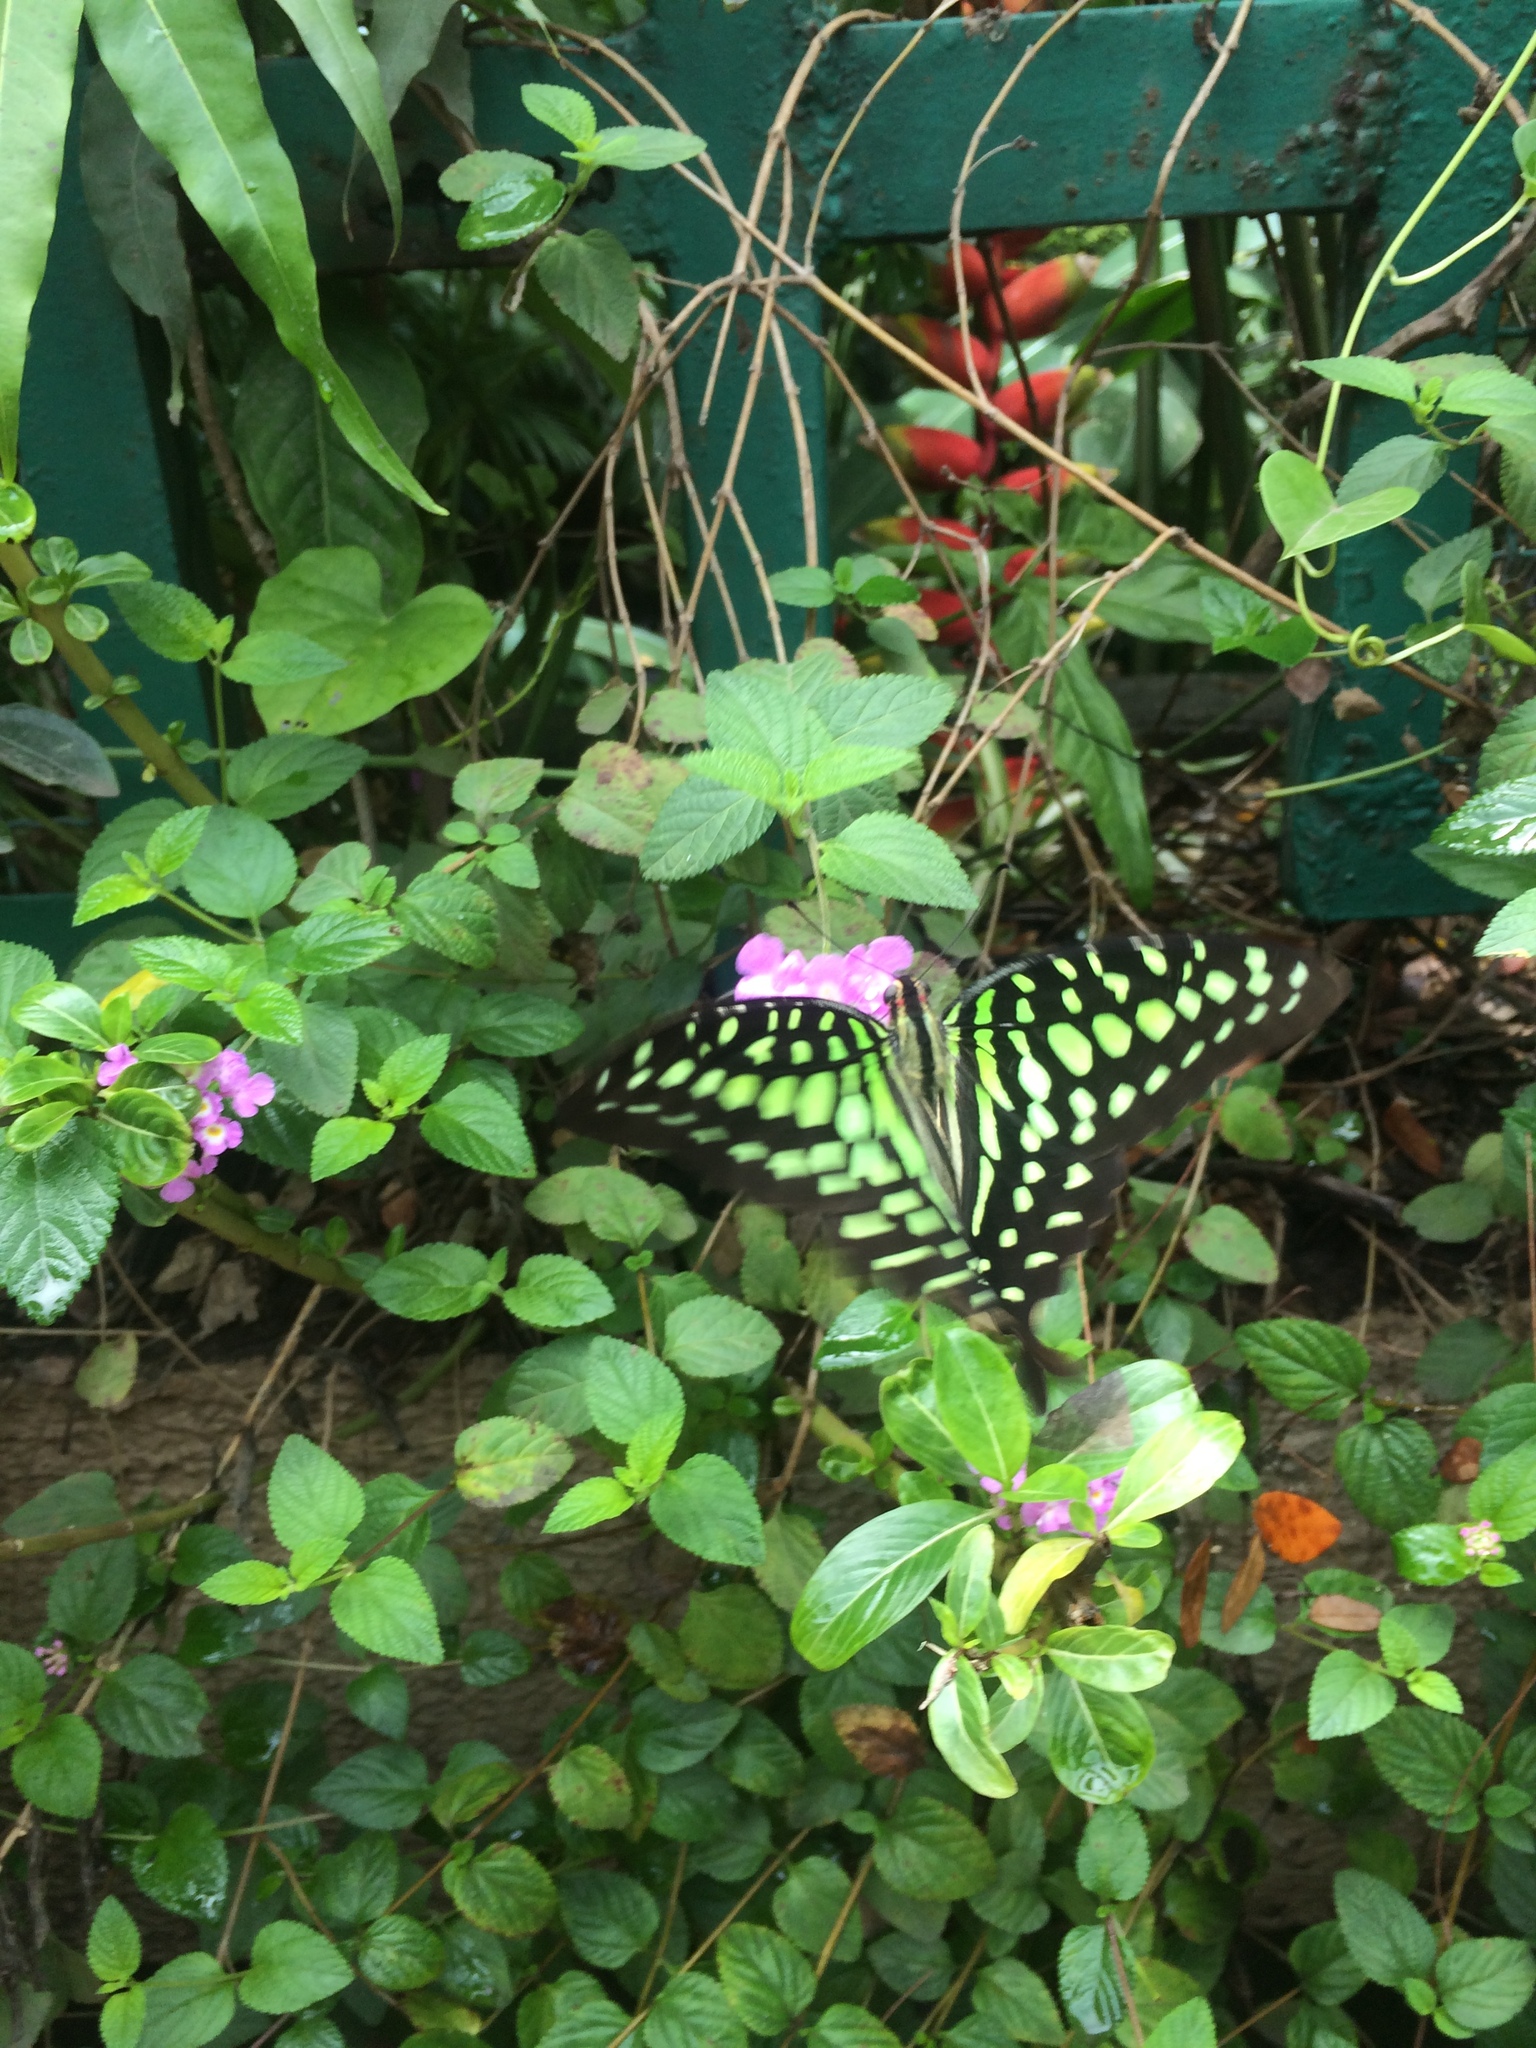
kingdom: Animalia
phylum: Arthropoda
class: Insecta
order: Lepidoptera
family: Papilionidae
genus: Graphium
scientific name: Graphium agamemnon
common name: Tailed jay
